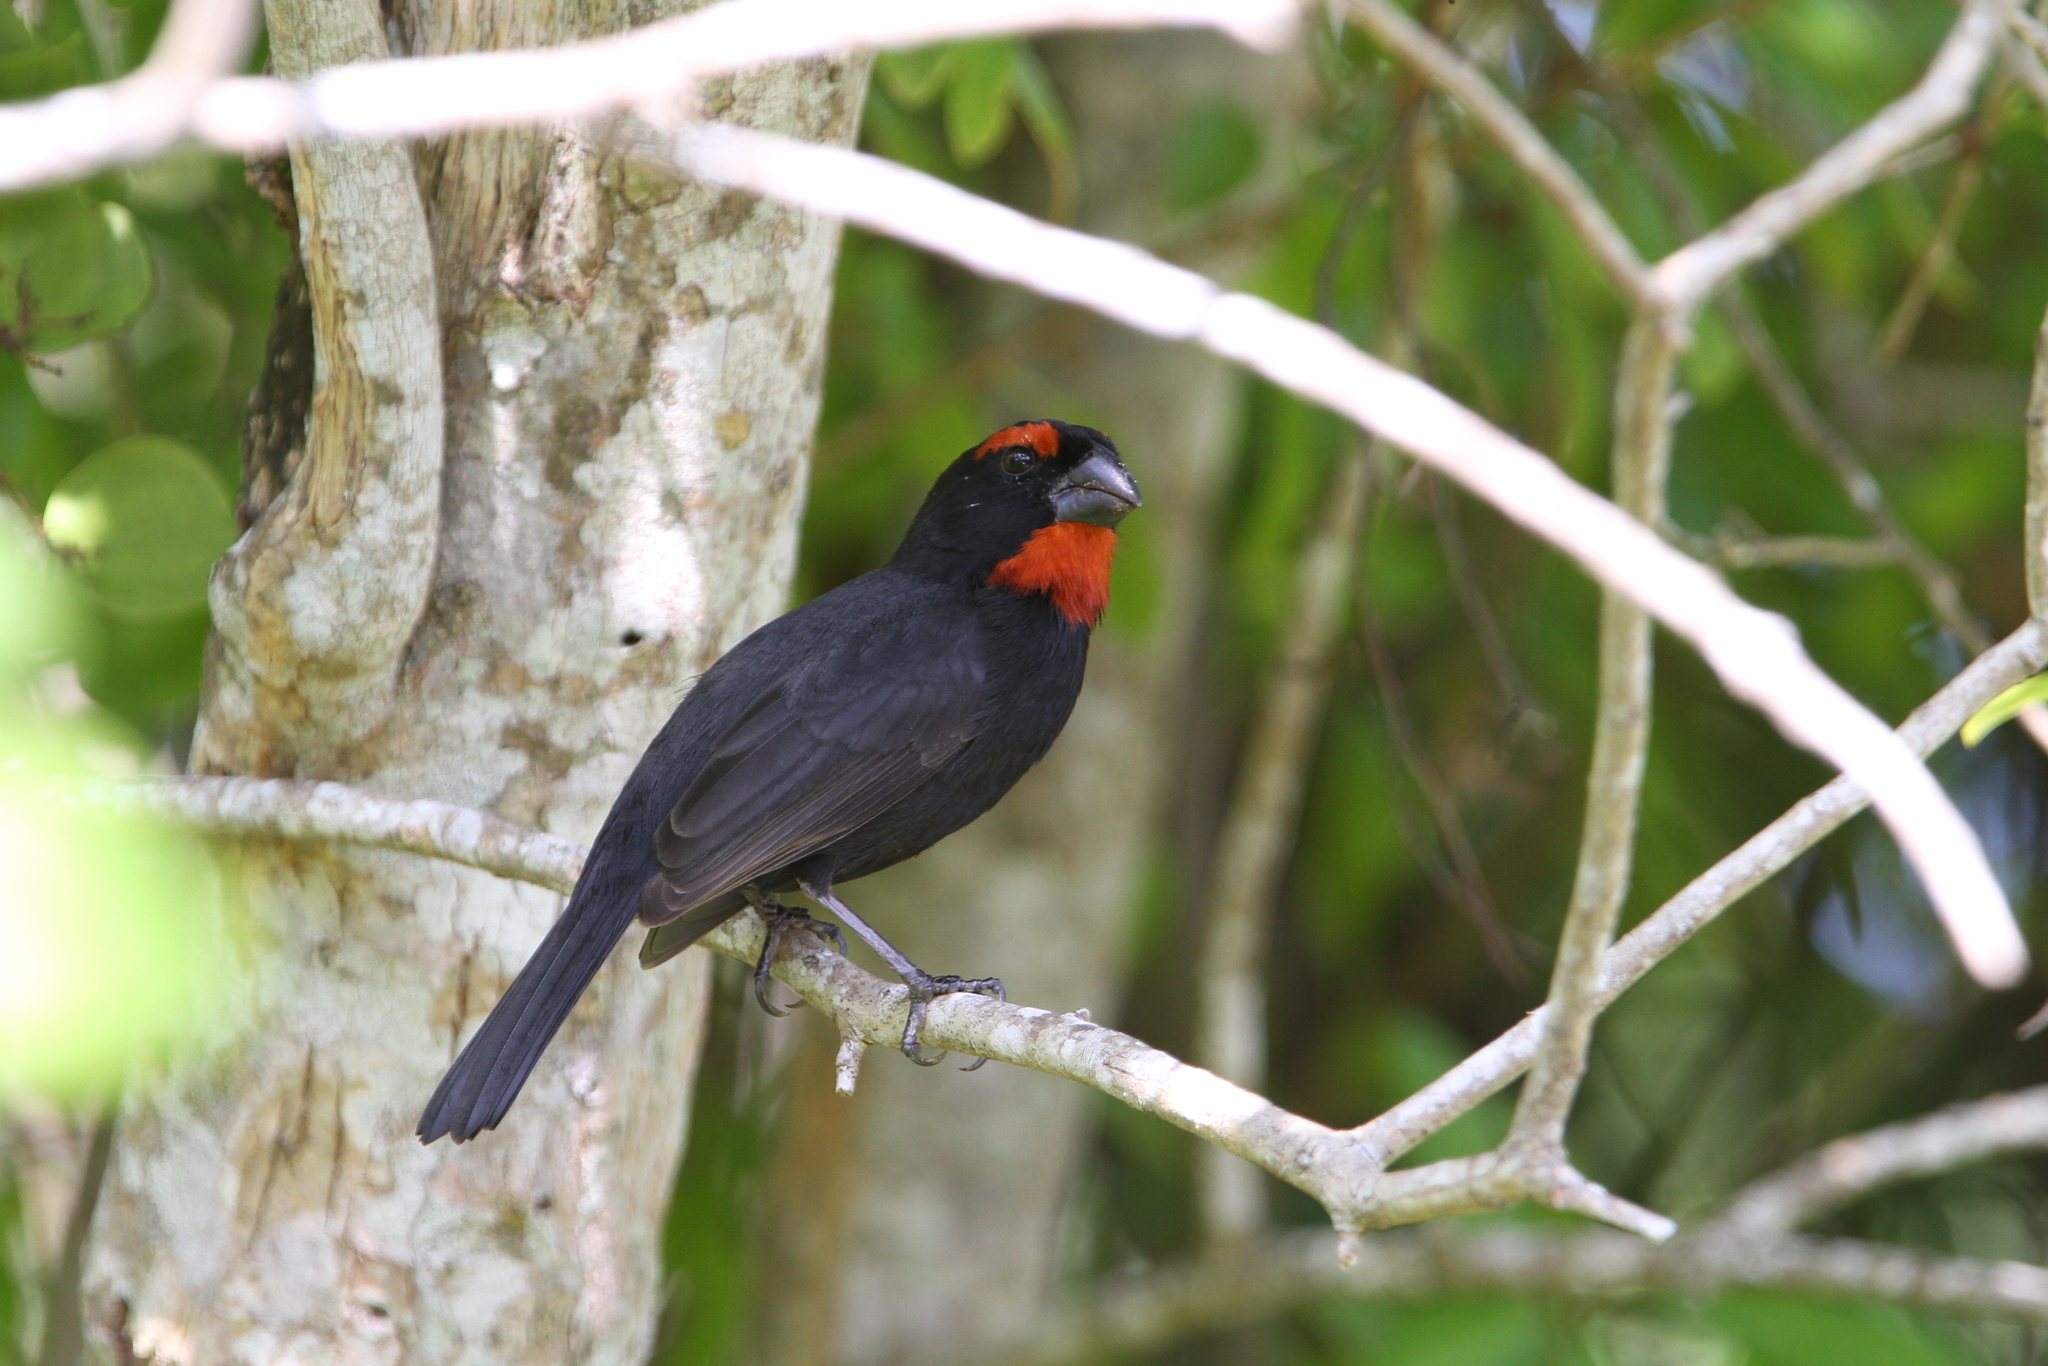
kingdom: Animalia
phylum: Chordata
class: Aves
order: Passeriformes
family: Thraupidae
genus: Melopyrrha
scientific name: Melopyrrha violacea
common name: Greater antillean bullfinch
